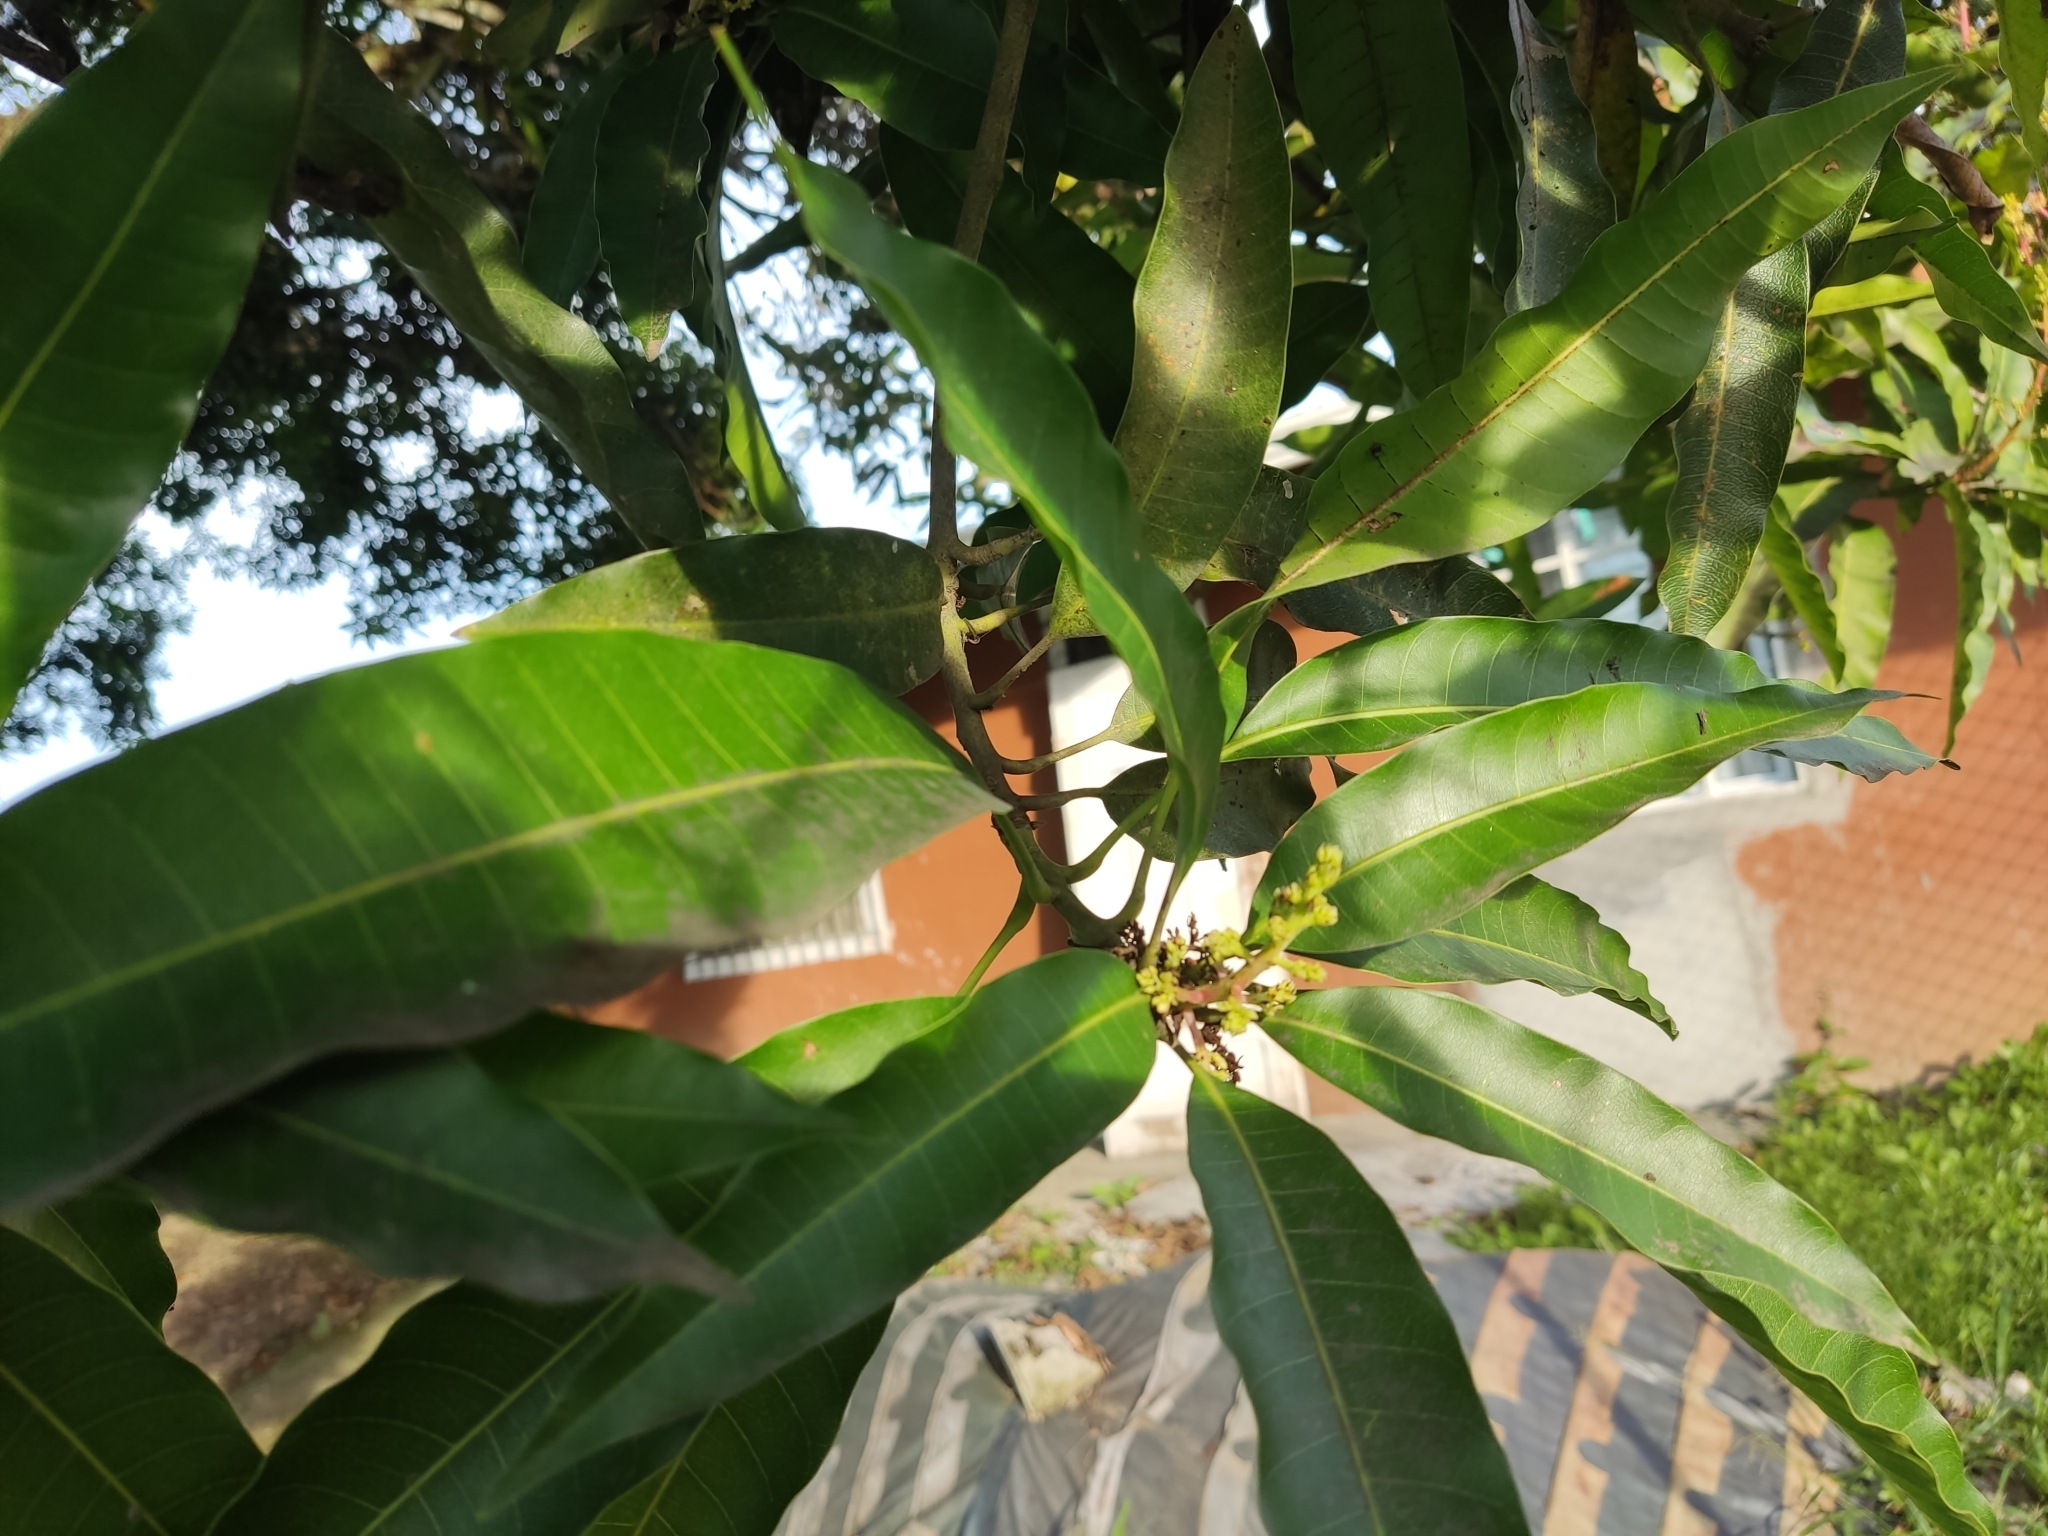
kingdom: Plantae
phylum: Tracheophyta
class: Magnoliopsida
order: Sapindales
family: Anacardiaceae
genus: Mangifera
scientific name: Mangifera indica
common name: Mango
